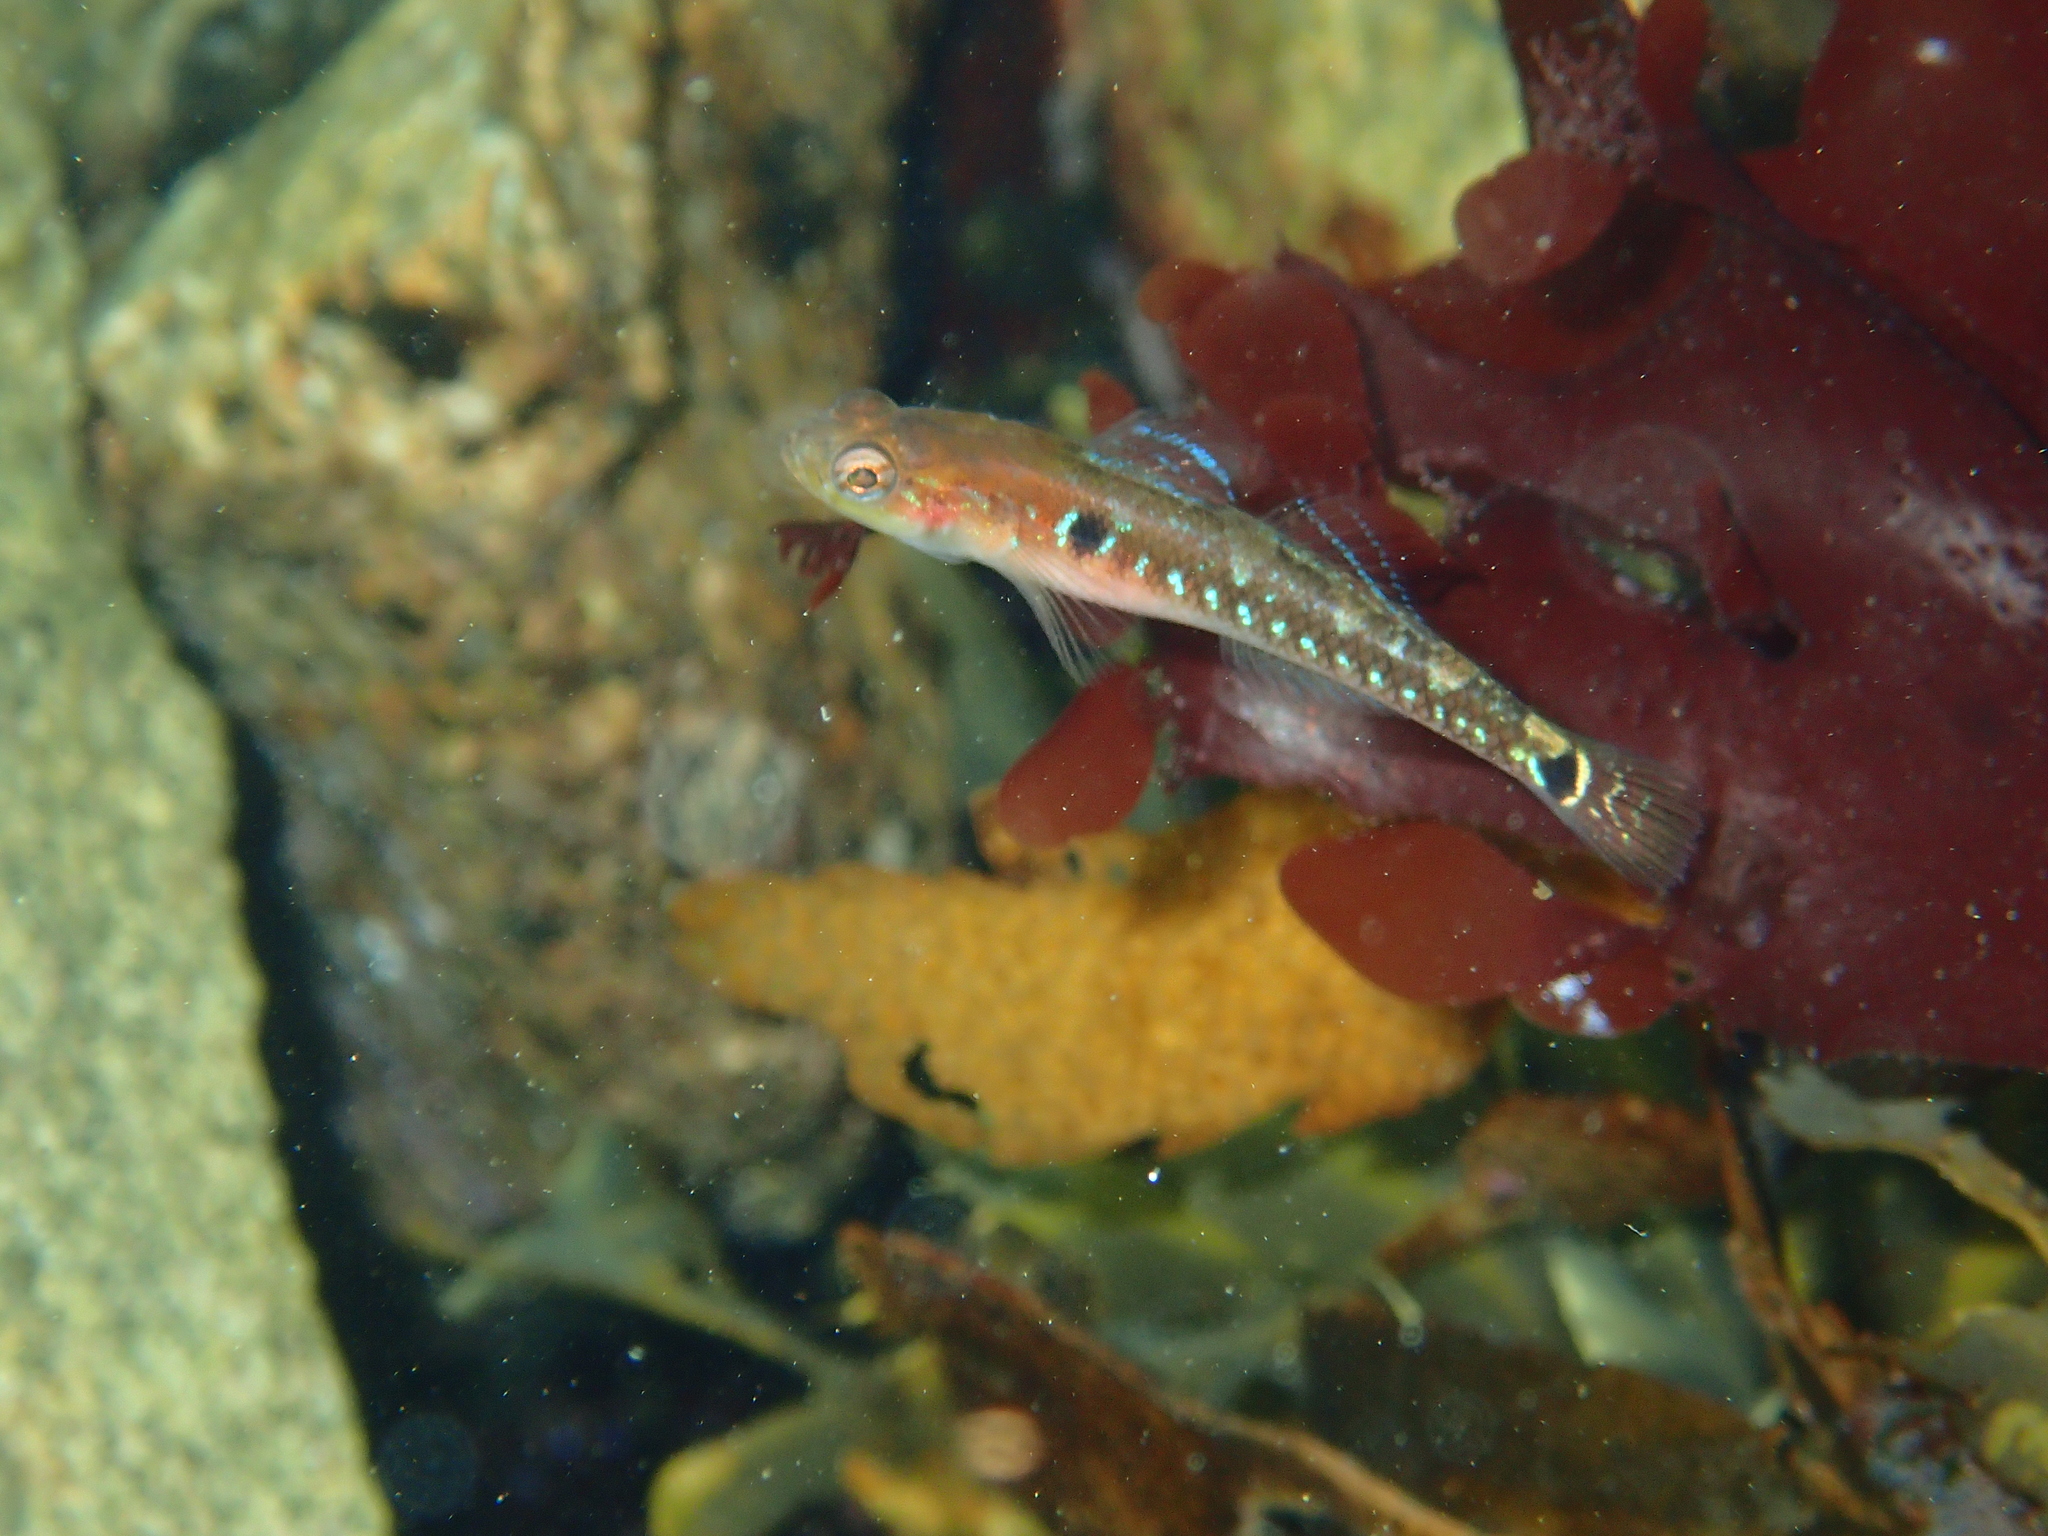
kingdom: Animalia
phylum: Chordata
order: Perciformes
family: Gobiidae
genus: Gobiusculus
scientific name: Gobiusculus flavescens
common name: Two-spotted goby
